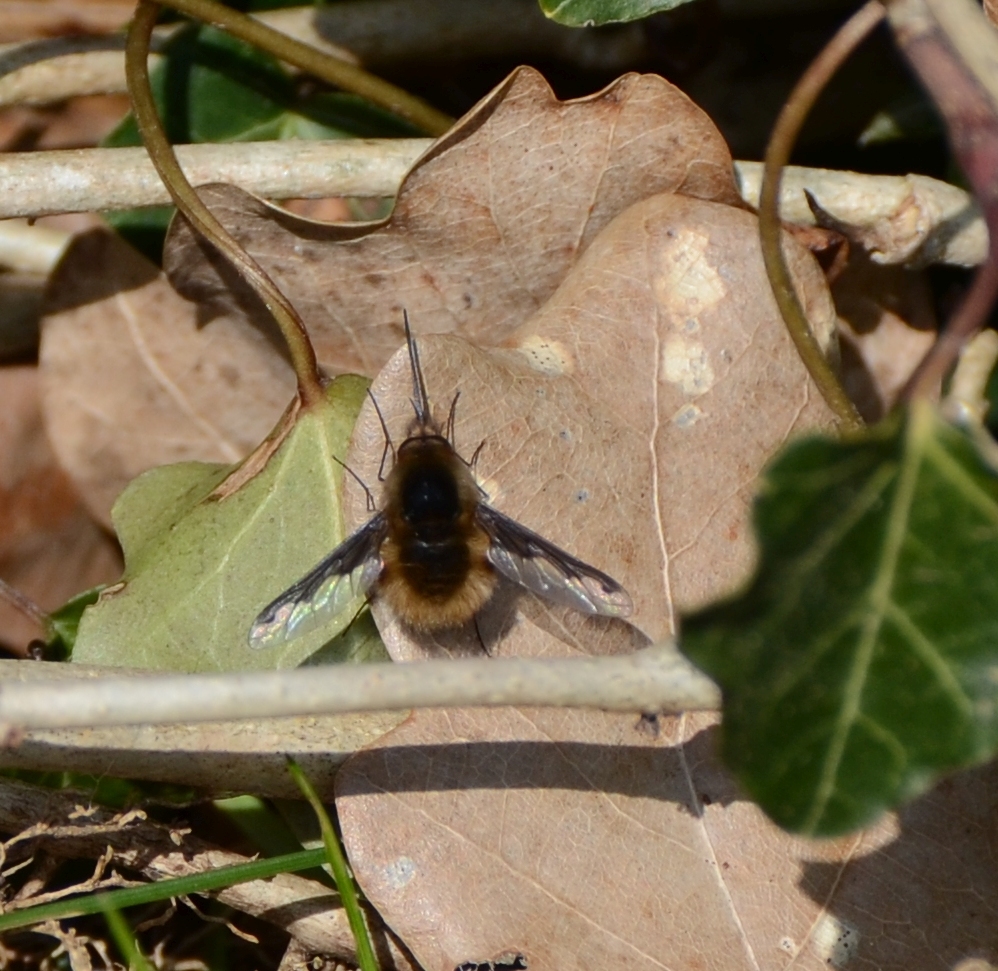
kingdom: Animalia
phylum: Arthropoda
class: Insecta
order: Diptera
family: Bombyliidae
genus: Bombylius
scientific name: Bombylius major
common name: Bee fly
